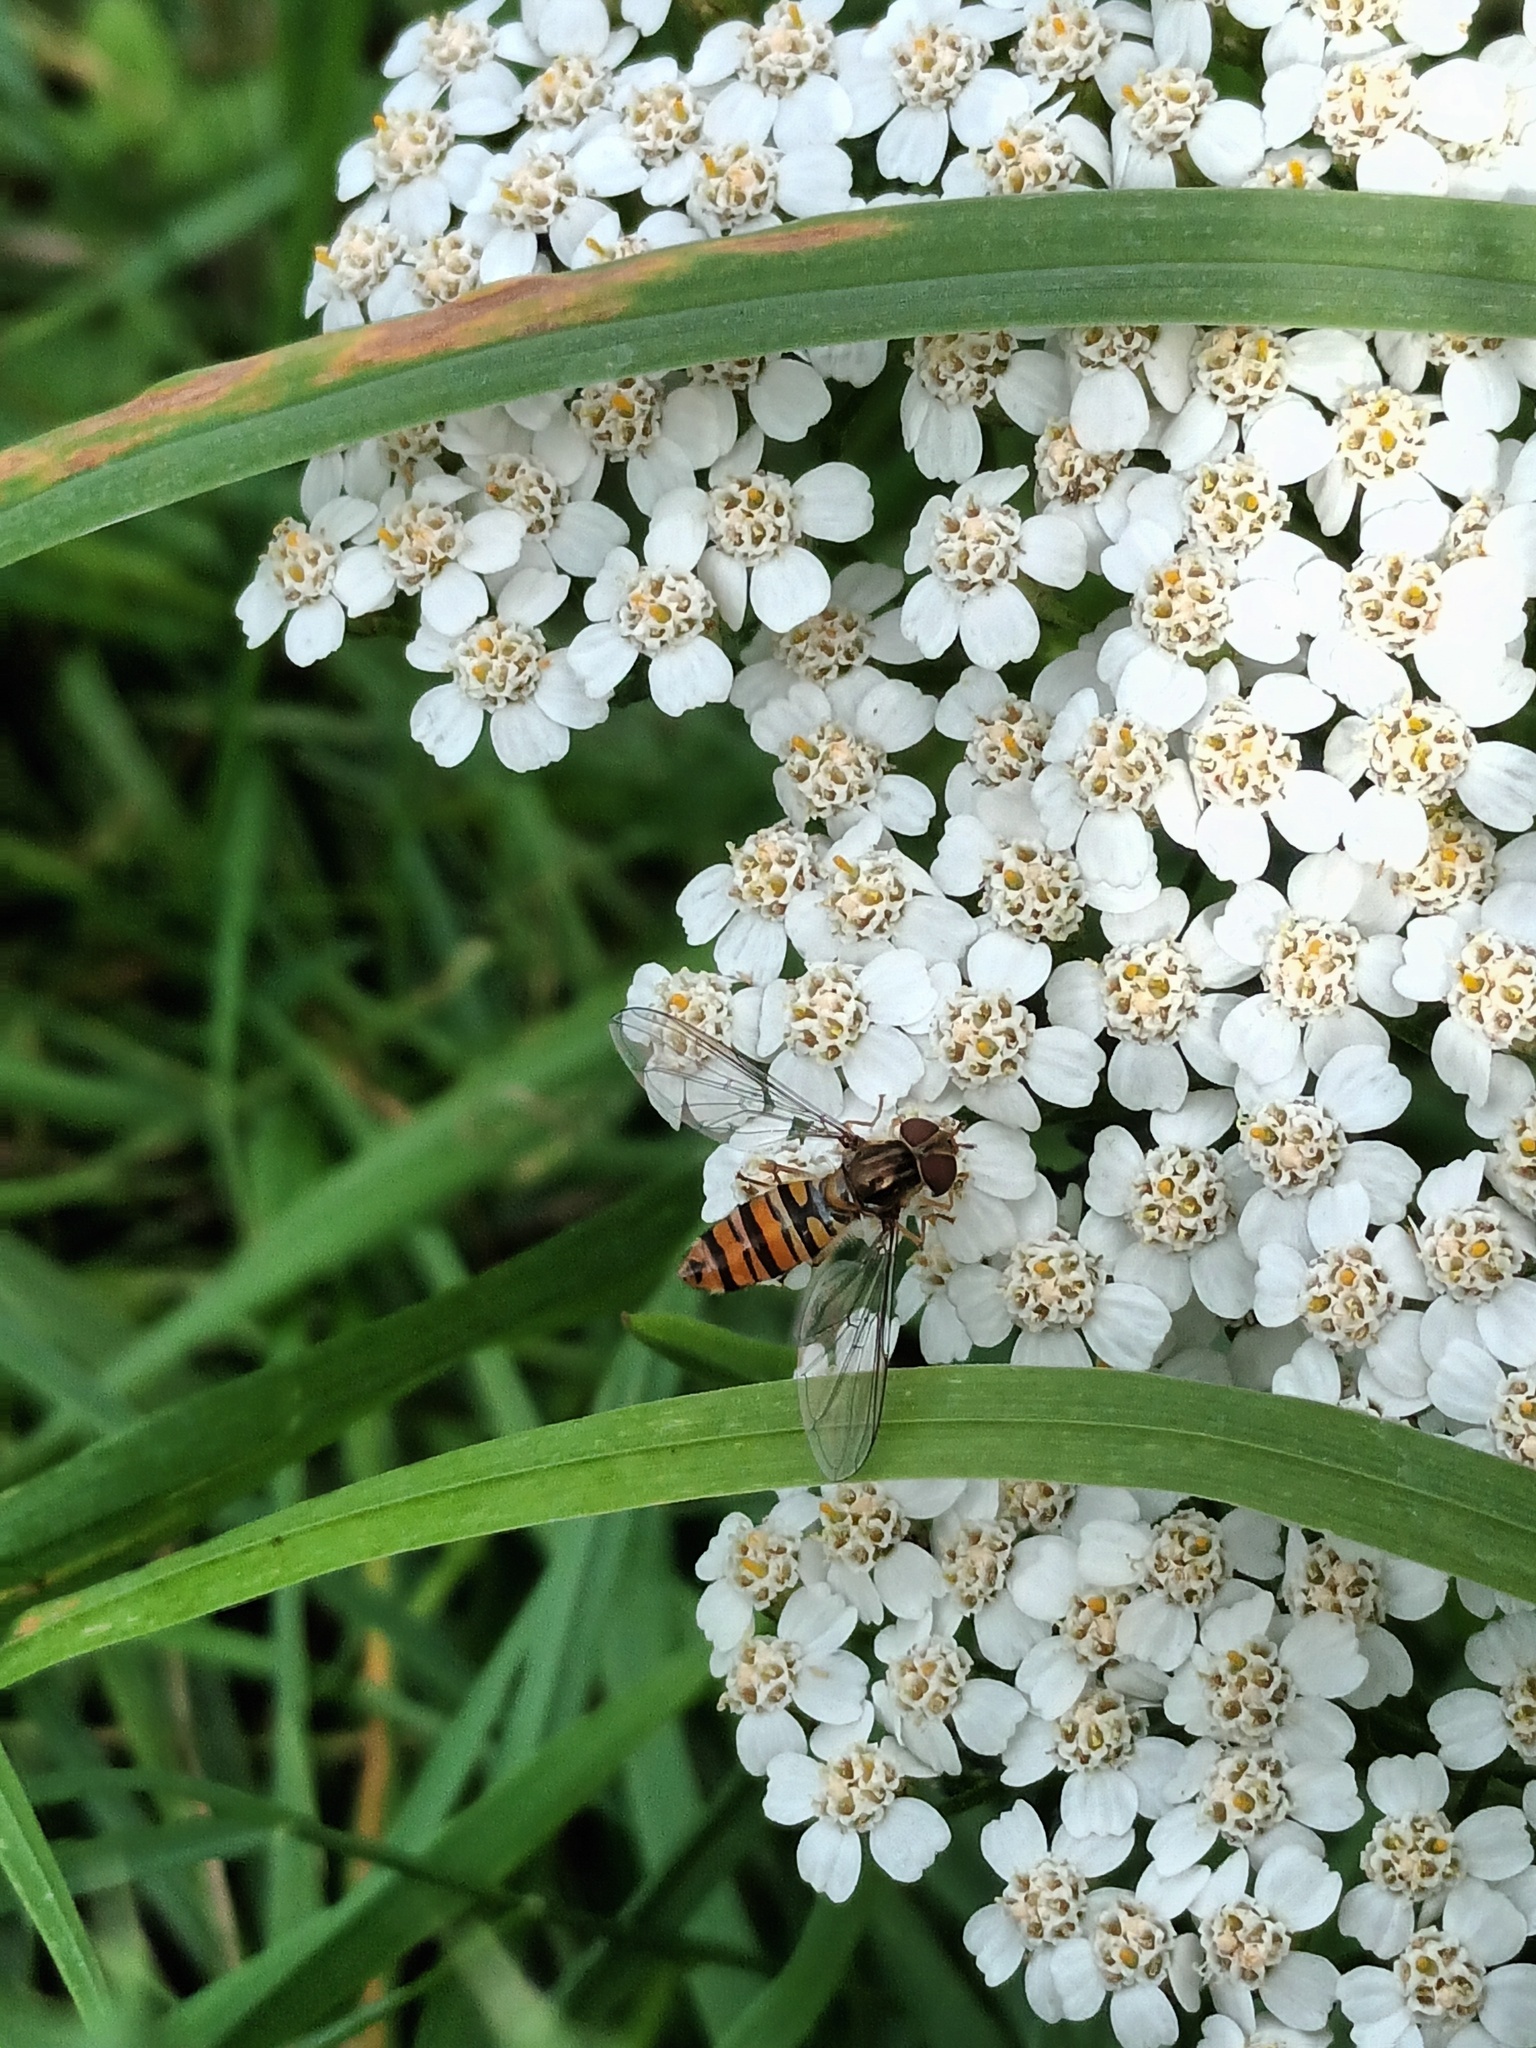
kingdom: Animalia
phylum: Arthropoda
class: Insecta
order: Diptera
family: Syrphidae
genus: Episyrphus
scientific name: Episyrphus balteatus
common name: Marmalade hoverfly
